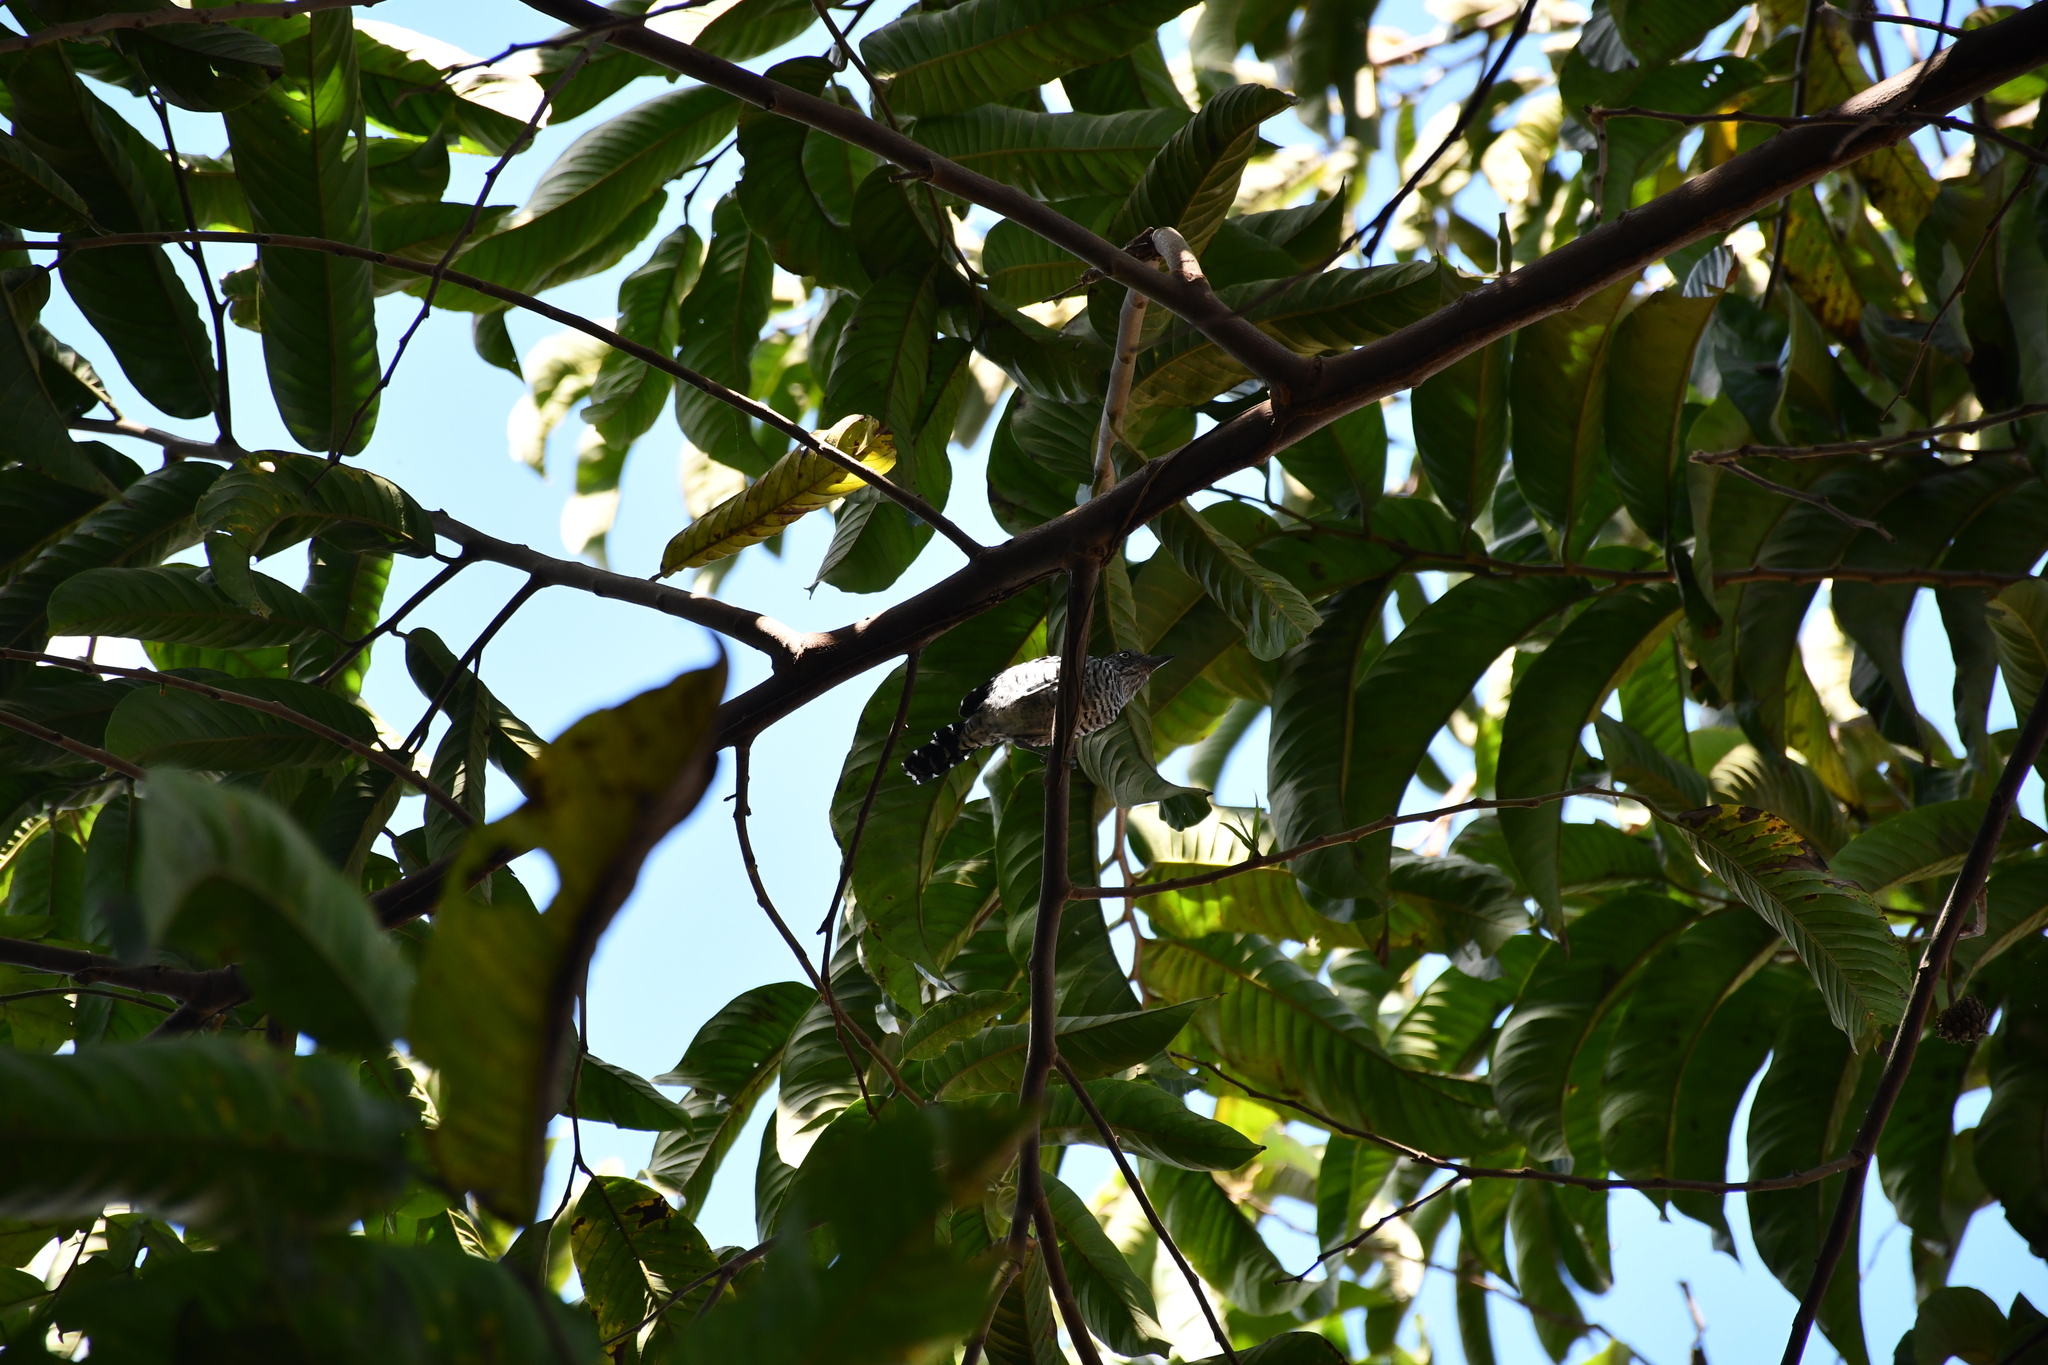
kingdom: Animalia
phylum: Chordata
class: Aves
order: Passeriformes
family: Thamnophilidae
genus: Thamnophilus
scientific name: Thamnophilus doliatus
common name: Barred antshrike
